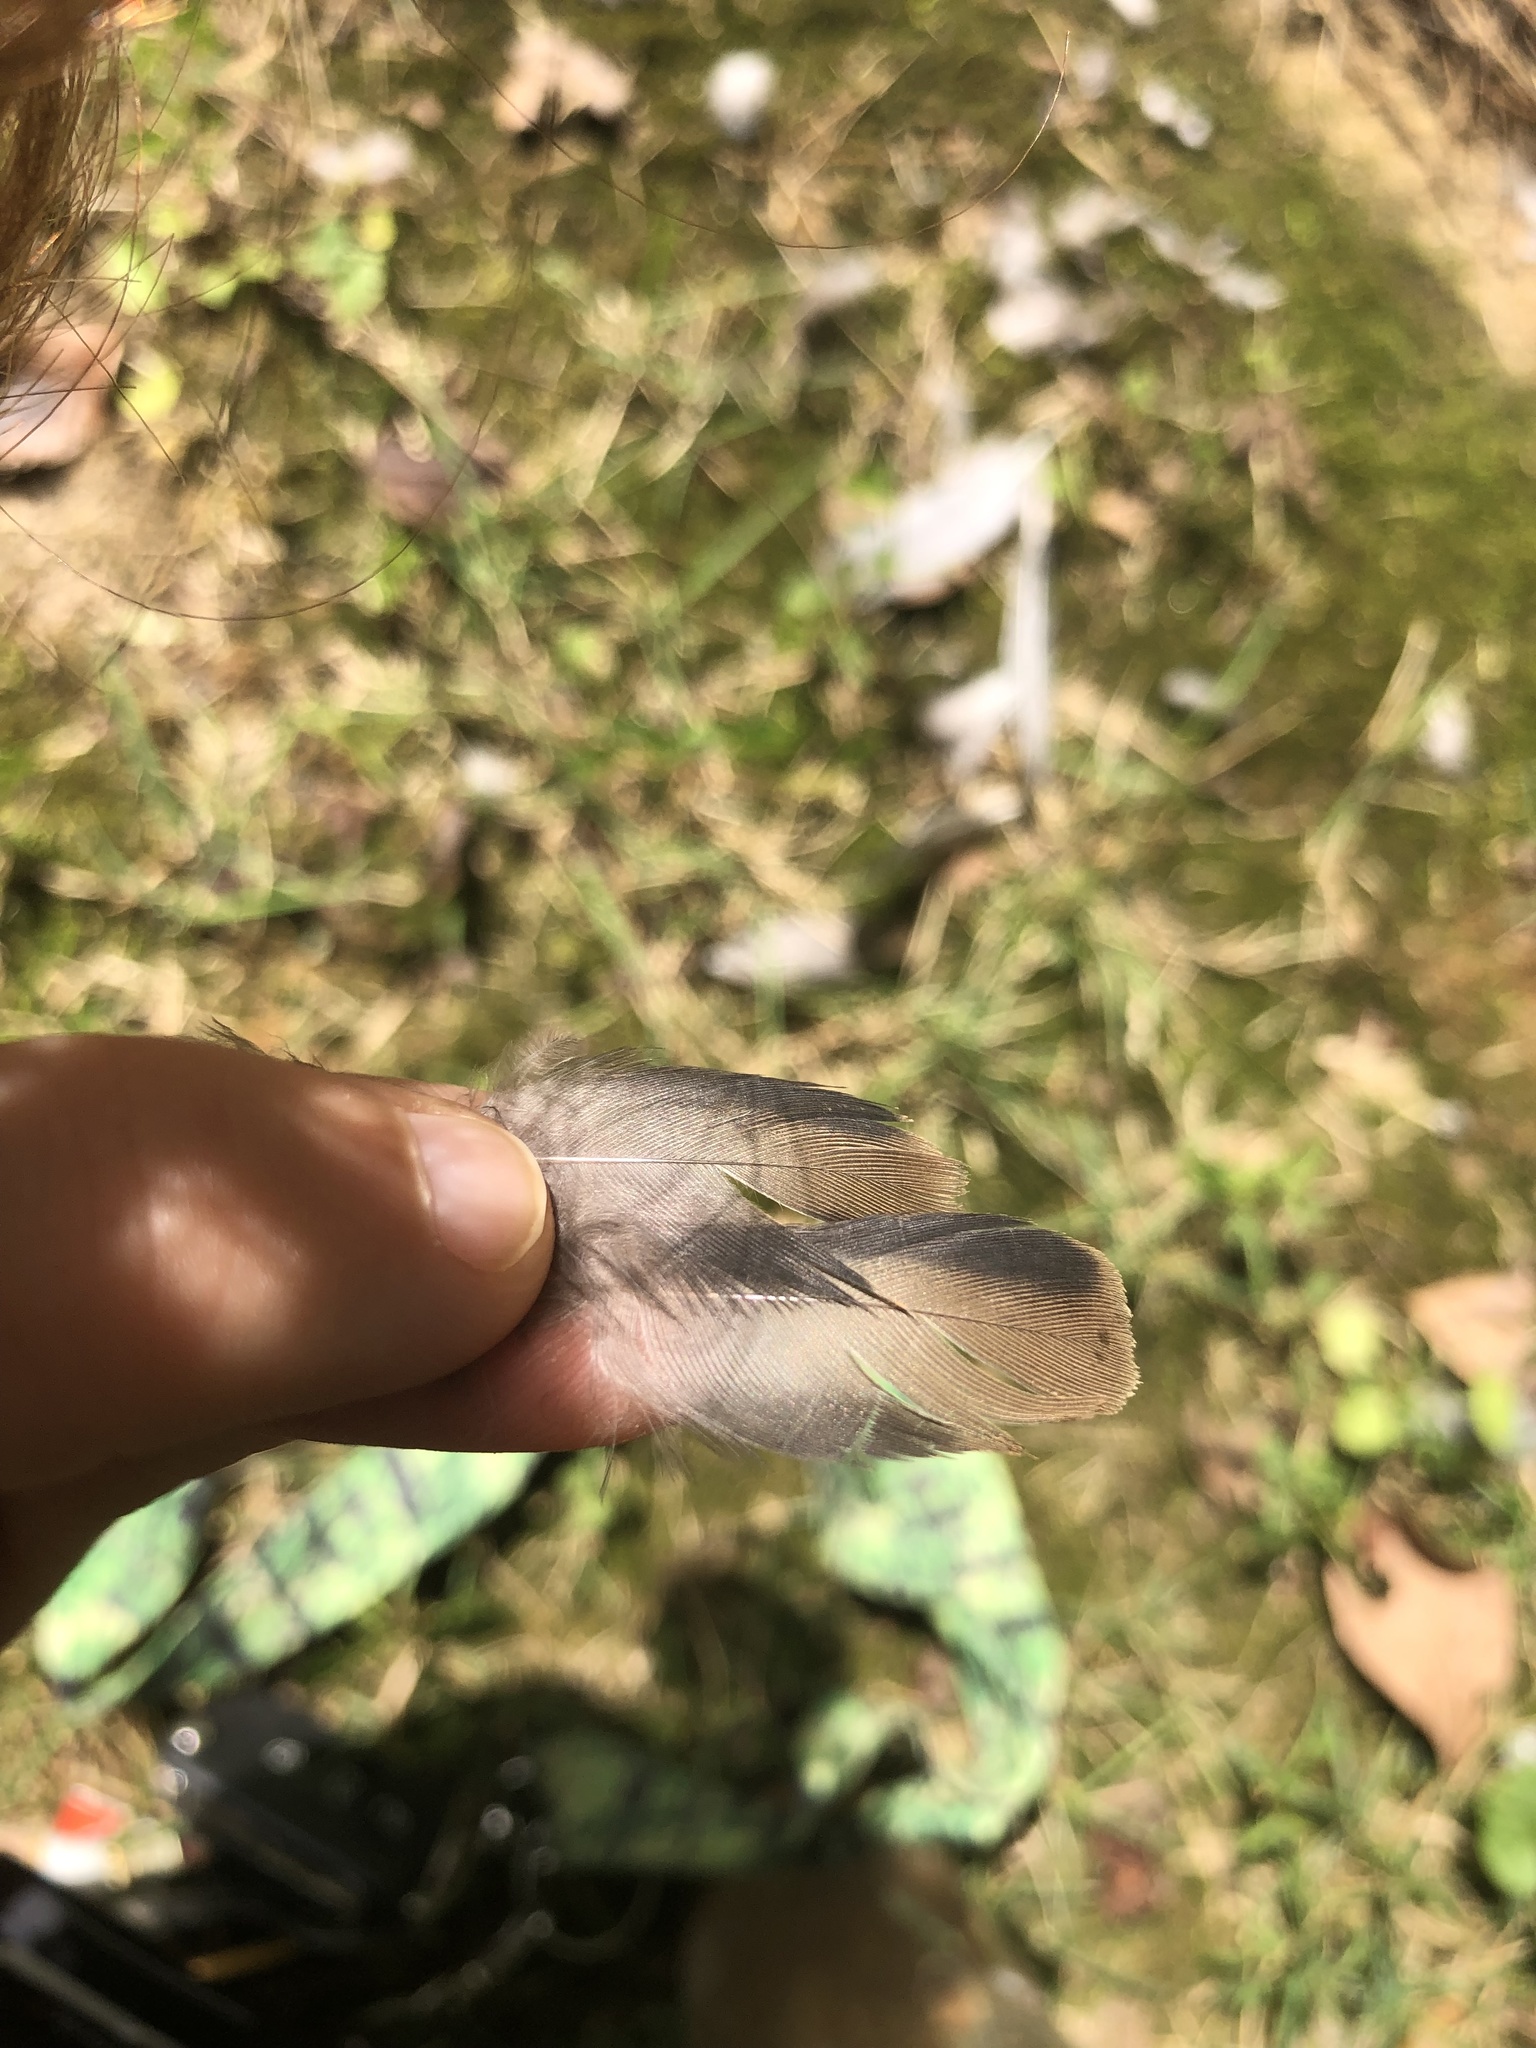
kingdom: Animalia
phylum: Chordata
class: Aves
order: Columbiformes
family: Columbidae
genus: Zenaida
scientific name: Zenaida macroura
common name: Mourning dove
